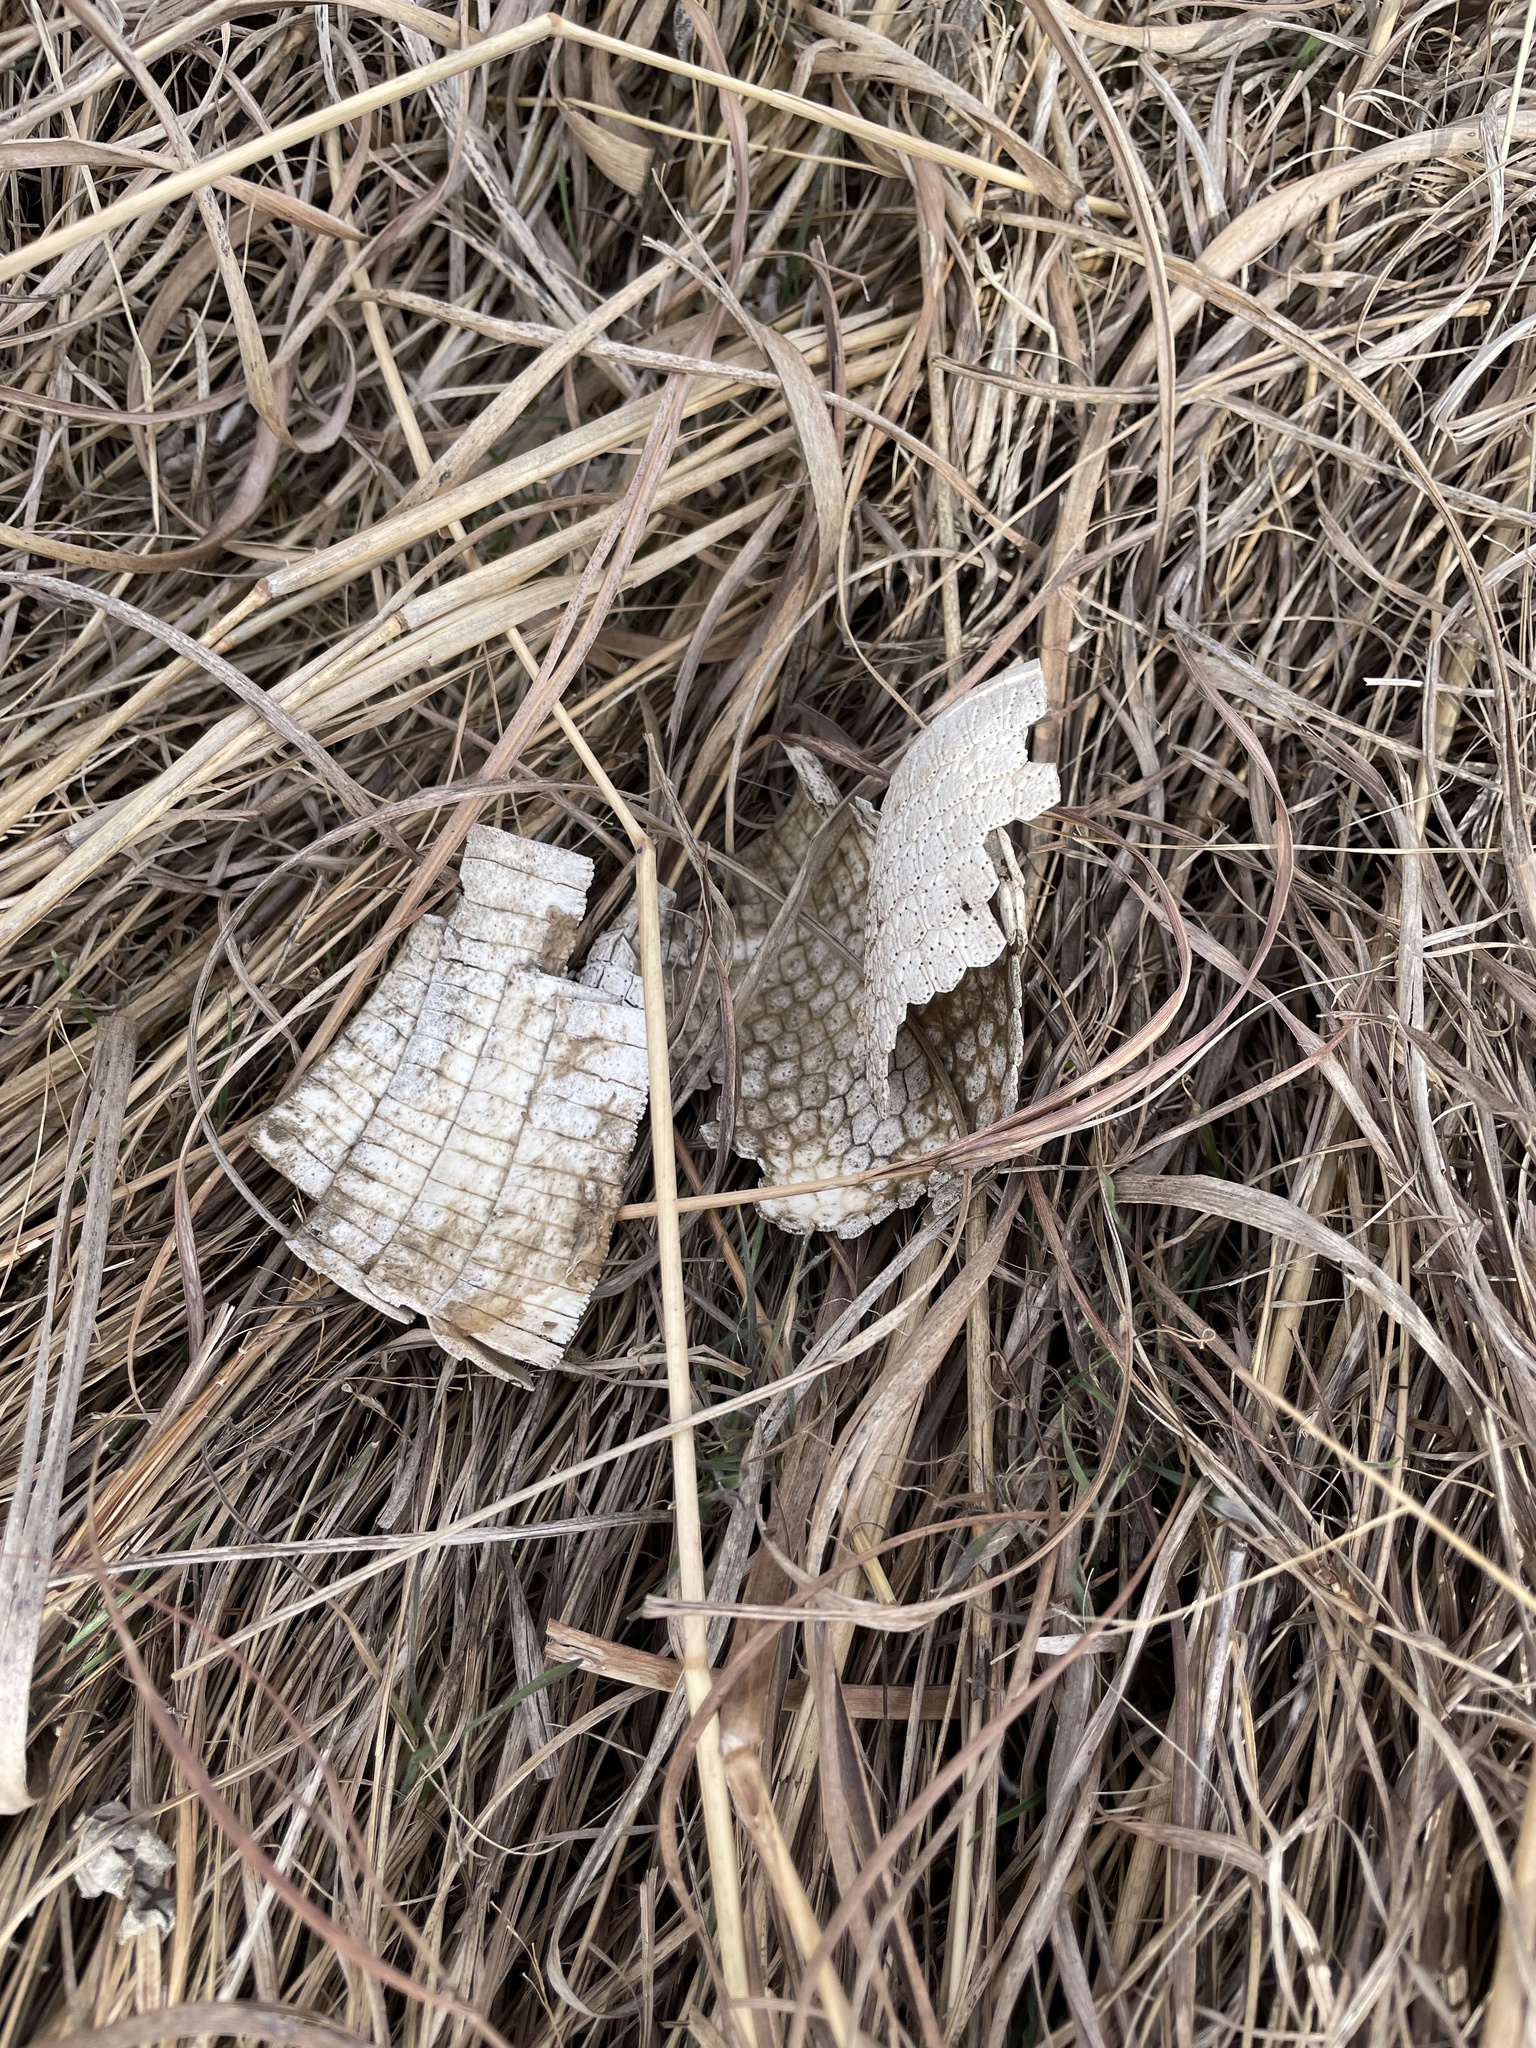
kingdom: Animalia
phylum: Chordata
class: Mammalia
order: Cingulata
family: Dasypodidae
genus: Dasypus
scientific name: Dasypus novemcinctus
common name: Nine-banded armadillo
